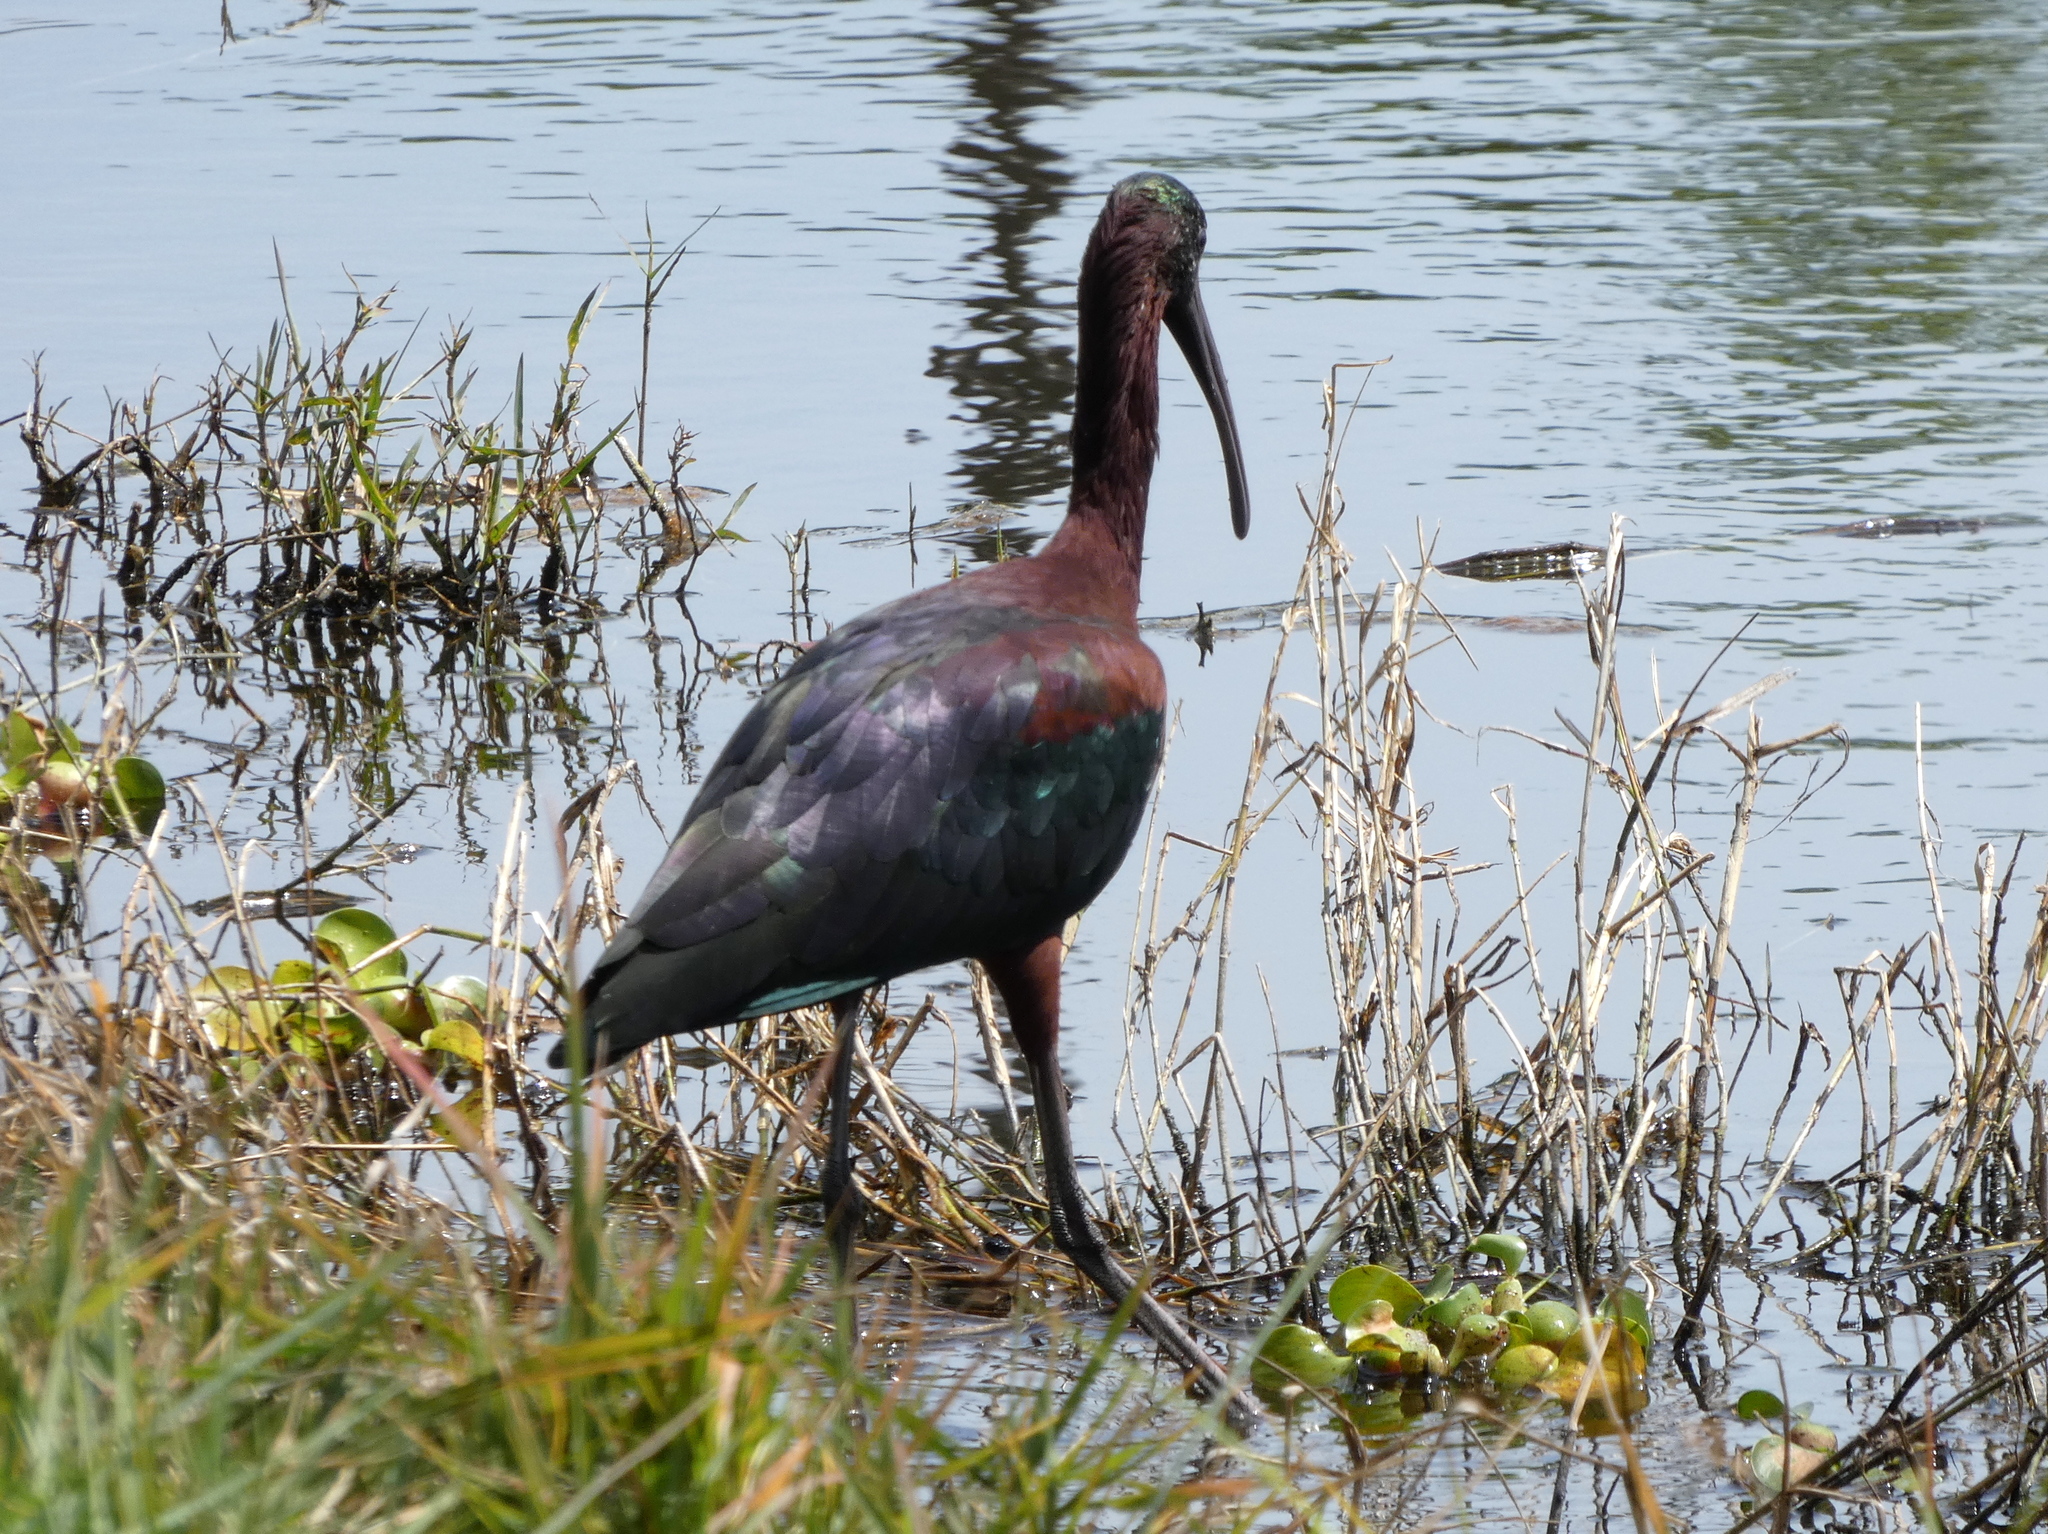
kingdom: Animalia
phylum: Chordata
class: Aves
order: Pelecaniformes
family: Threskiornithidae
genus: Plegadis
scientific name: Plegadis falcinellus
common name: Glossy ibis
